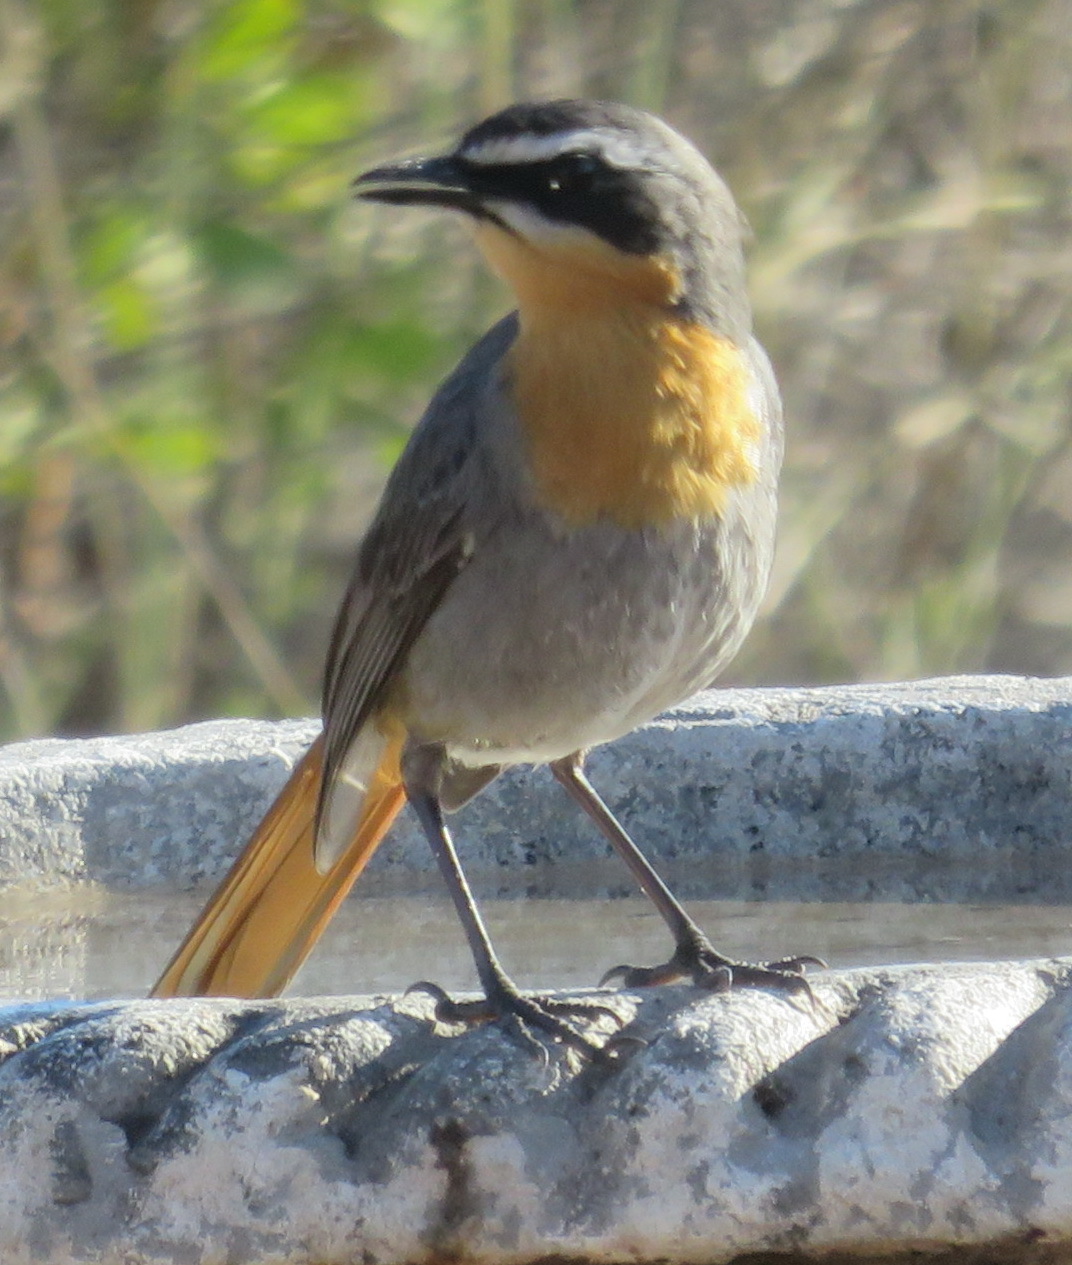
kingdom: Animalia
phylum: Chordata
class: Aves
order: Passeriformes
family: Muscicapidae
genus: Cossypha
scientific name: Cossypha caffra
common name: Cape robin-chat
